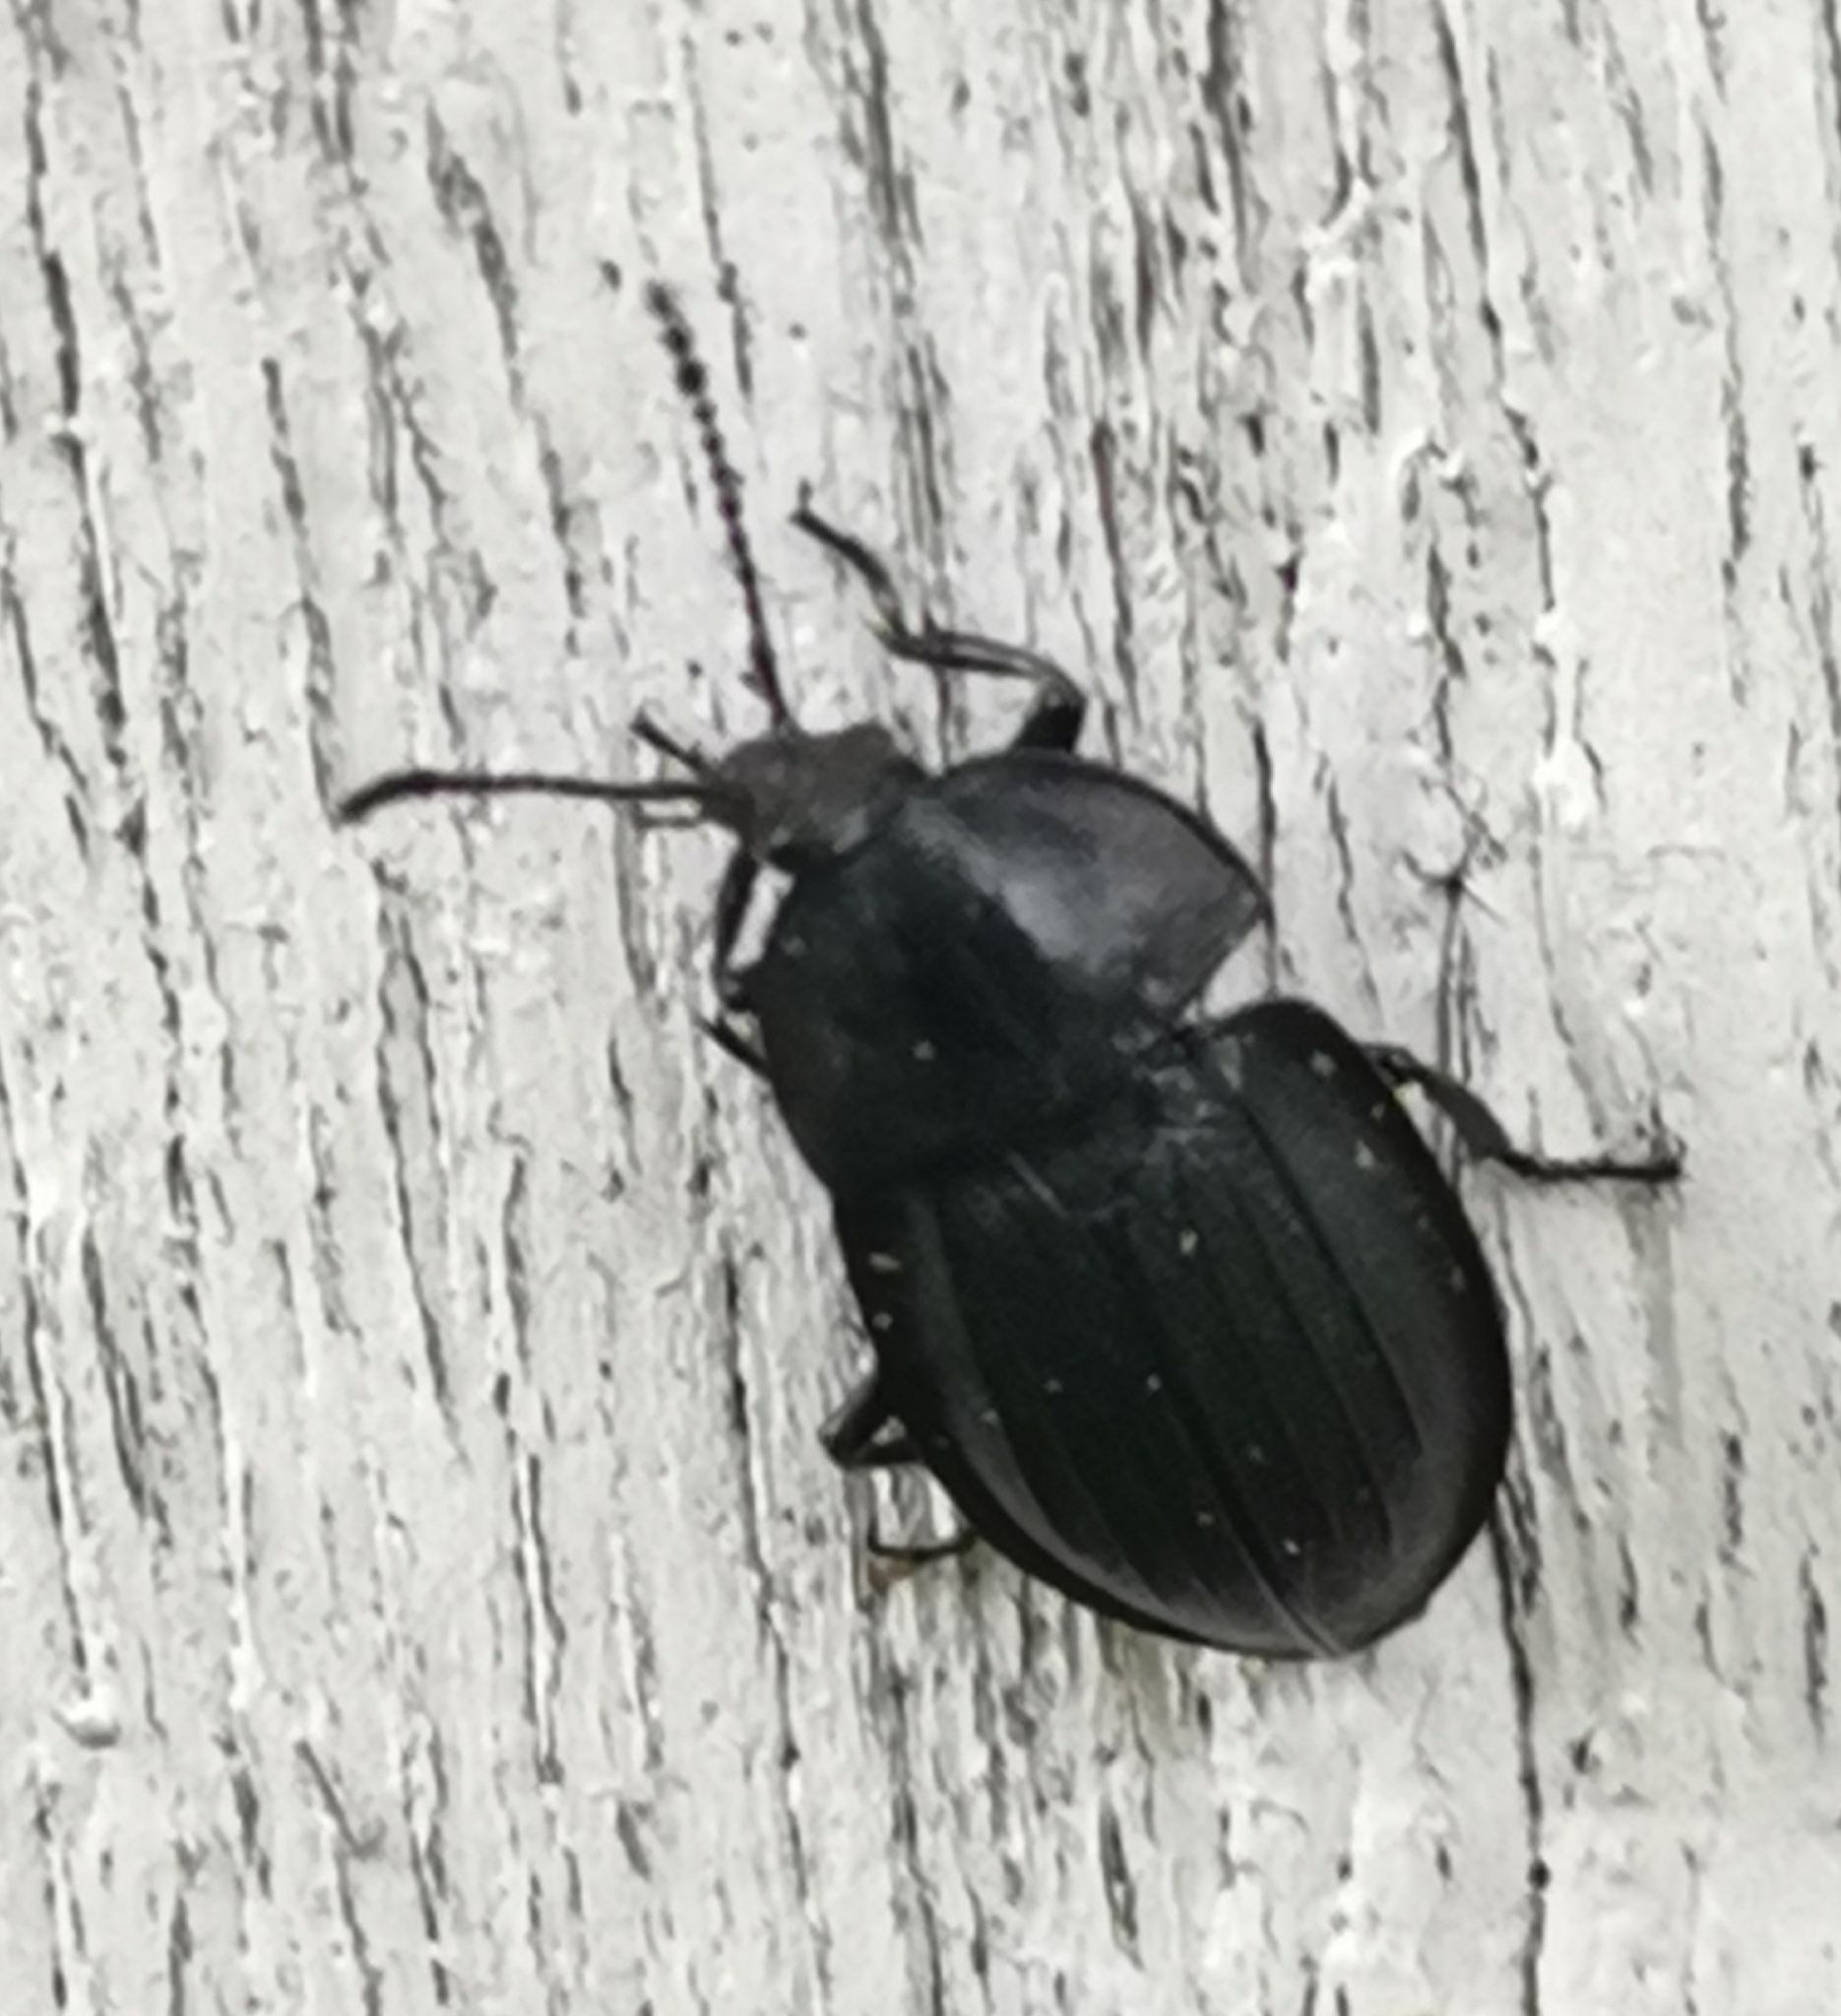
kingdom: Animalia
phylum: Arthropoda
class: Insecta
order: Coleoptera
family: Staphylinidae
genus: Silpha
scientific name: Silpha atrata
